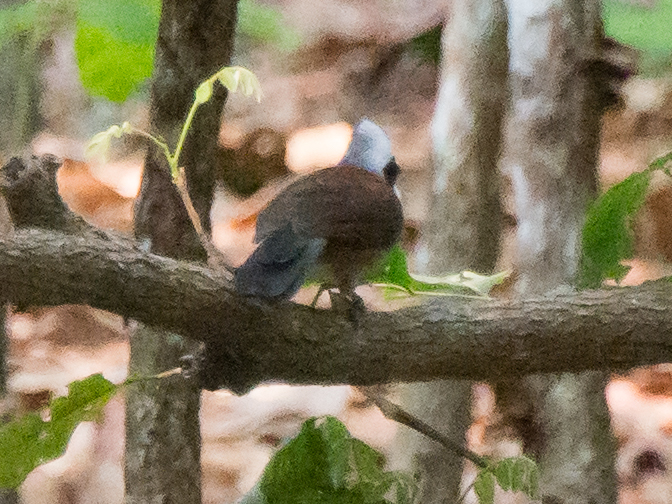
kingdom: Animalia
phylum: Chordata
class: Aves
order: Passeriformes
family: Leiothrichidae
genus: Garrulax
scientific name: Garrulax leucolophus
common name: White-crested laughingthrush
